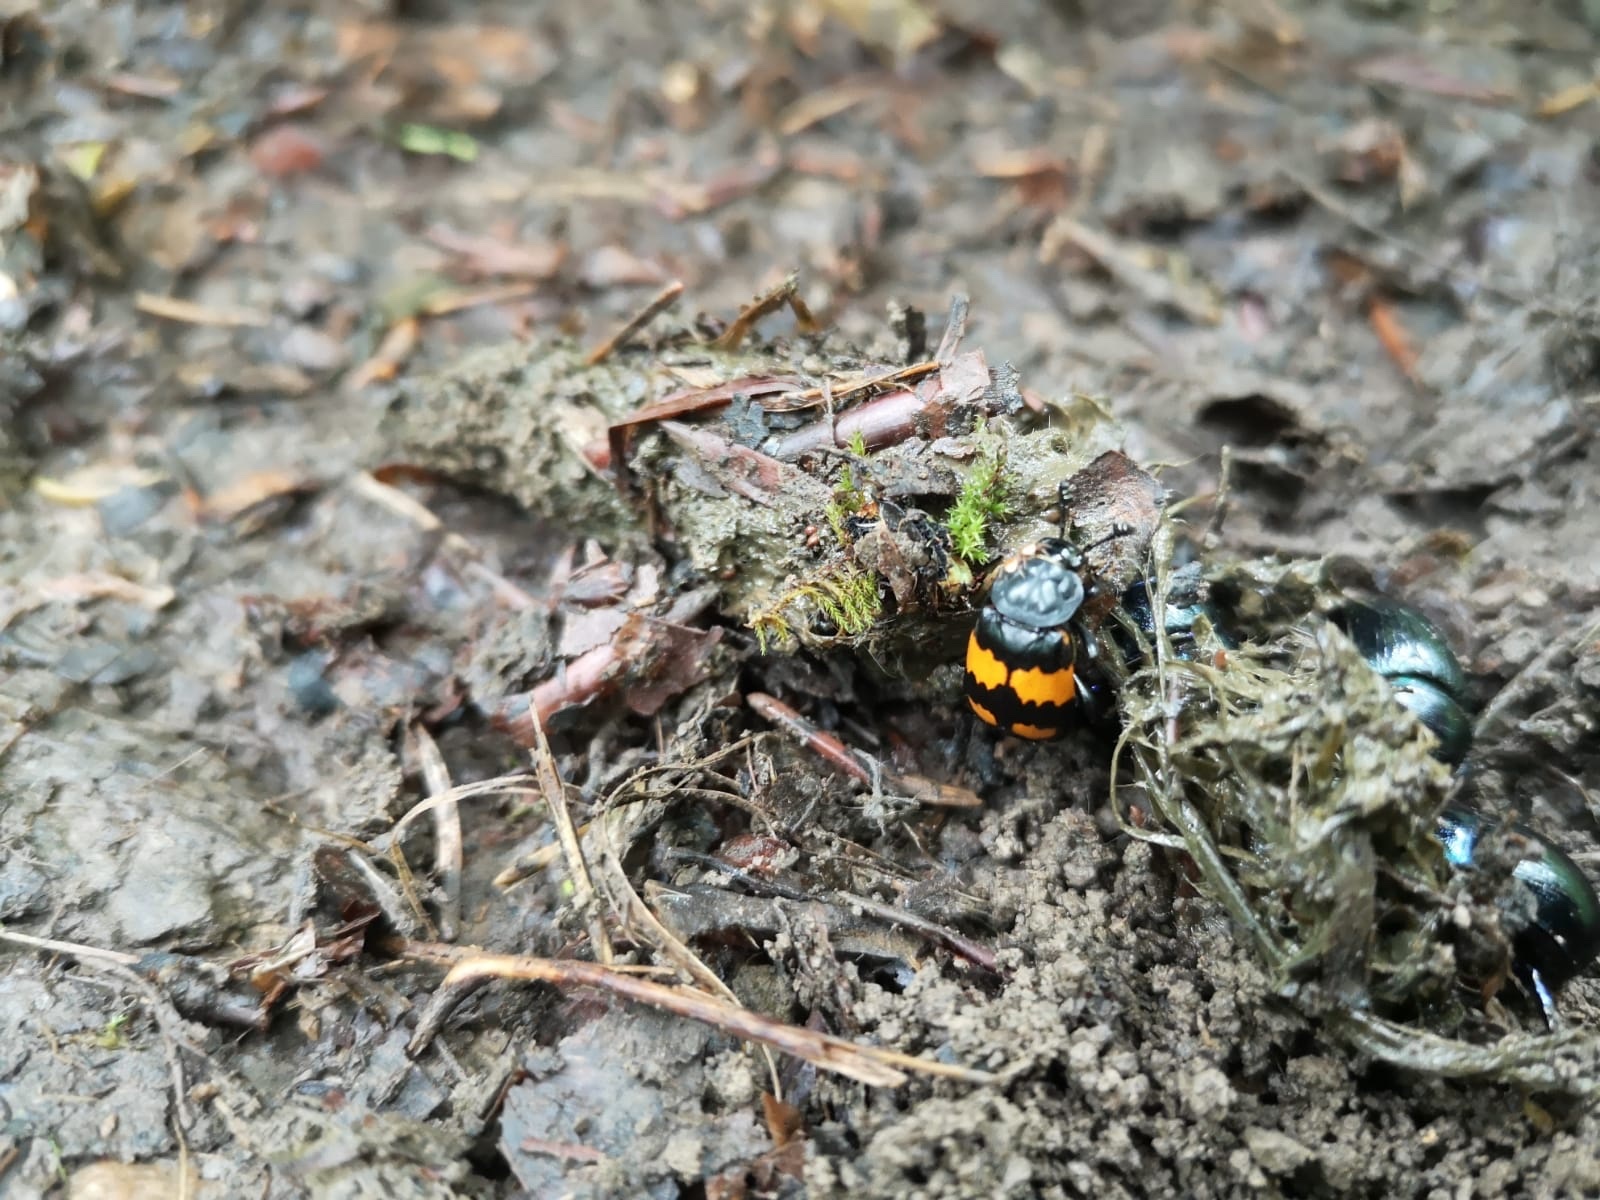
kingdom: Animalia
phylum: Arthropoda
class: Insecta
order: Coleoptera
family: Staphylinidae
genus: Nicrophorus
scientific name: Nicrophorus vespilloides
